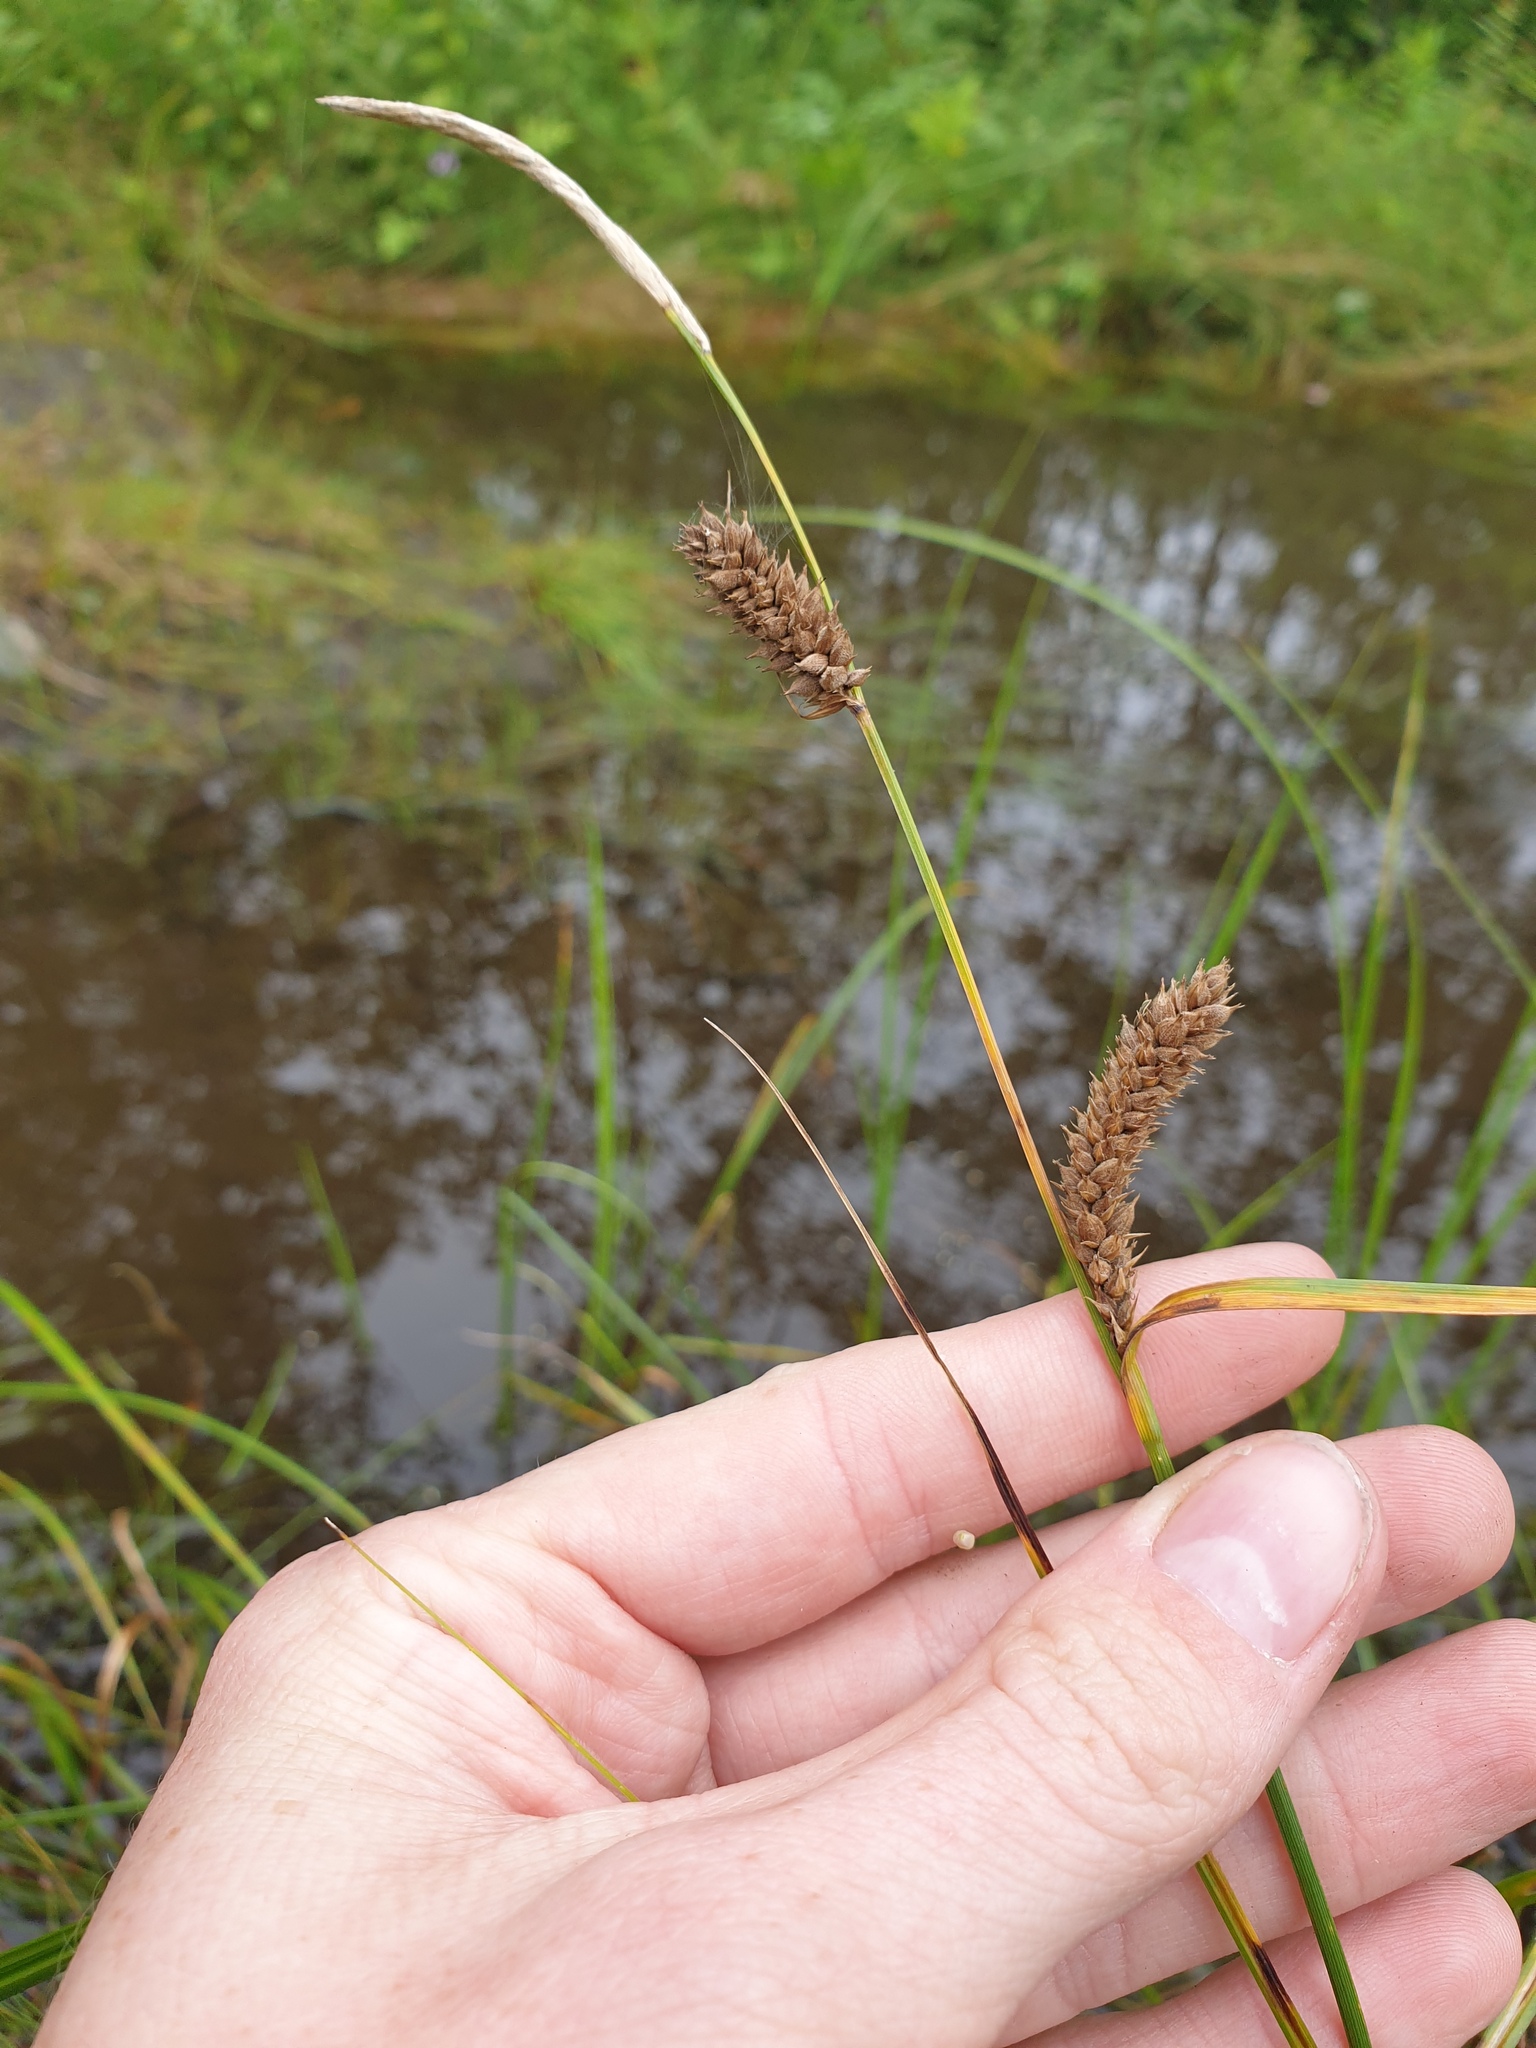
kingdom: Plantae
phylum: Tracheophyta
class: Liliopsida
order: Poales
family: Cyperaceae
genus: Carex
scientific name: Carex pellita
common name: Woolly sedge
